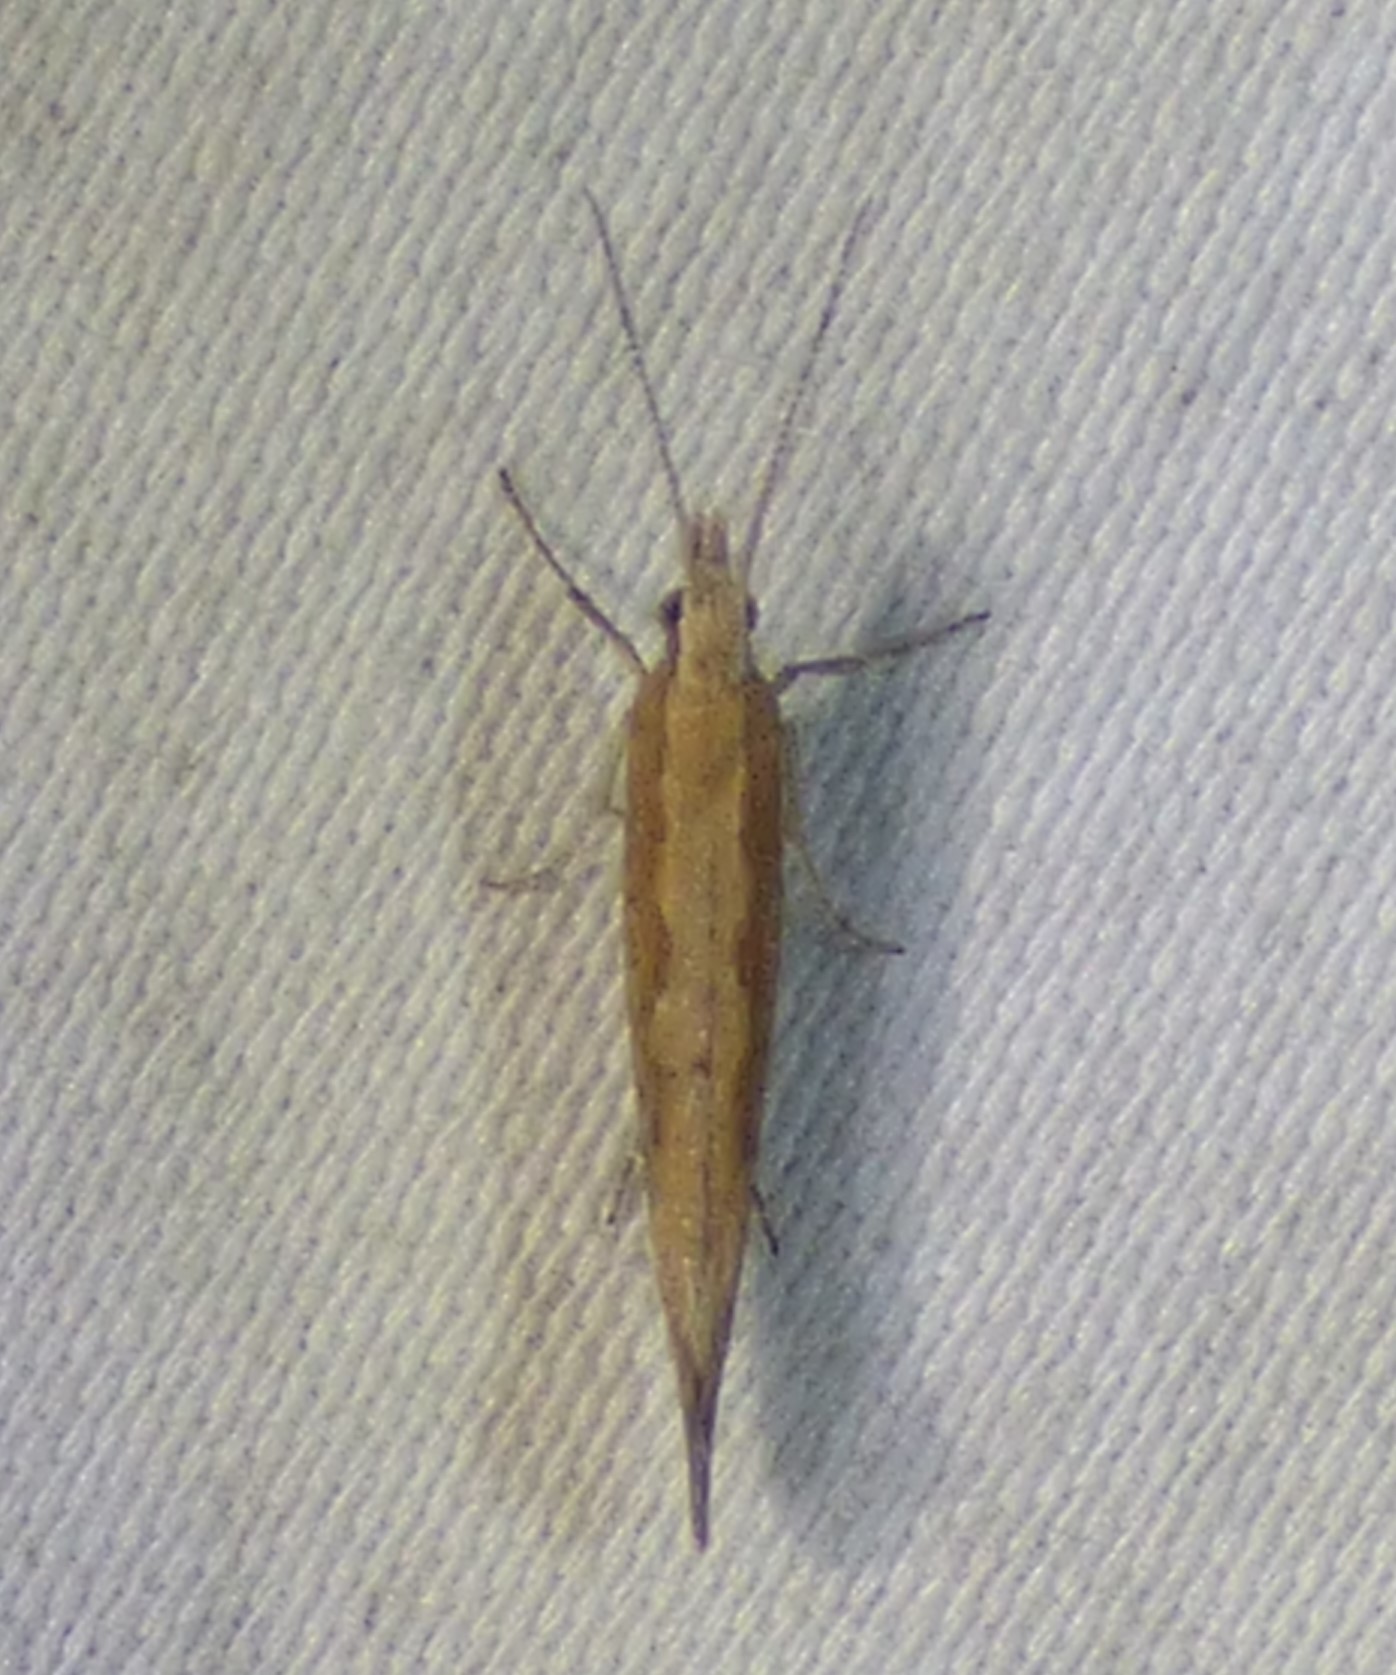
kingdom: Animalia
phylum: Arthropoda
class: Insecta
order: Lepidoptera
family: Plutellidae
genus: Plutella
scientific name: Plutella xylostella
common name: Diamond-back moth
